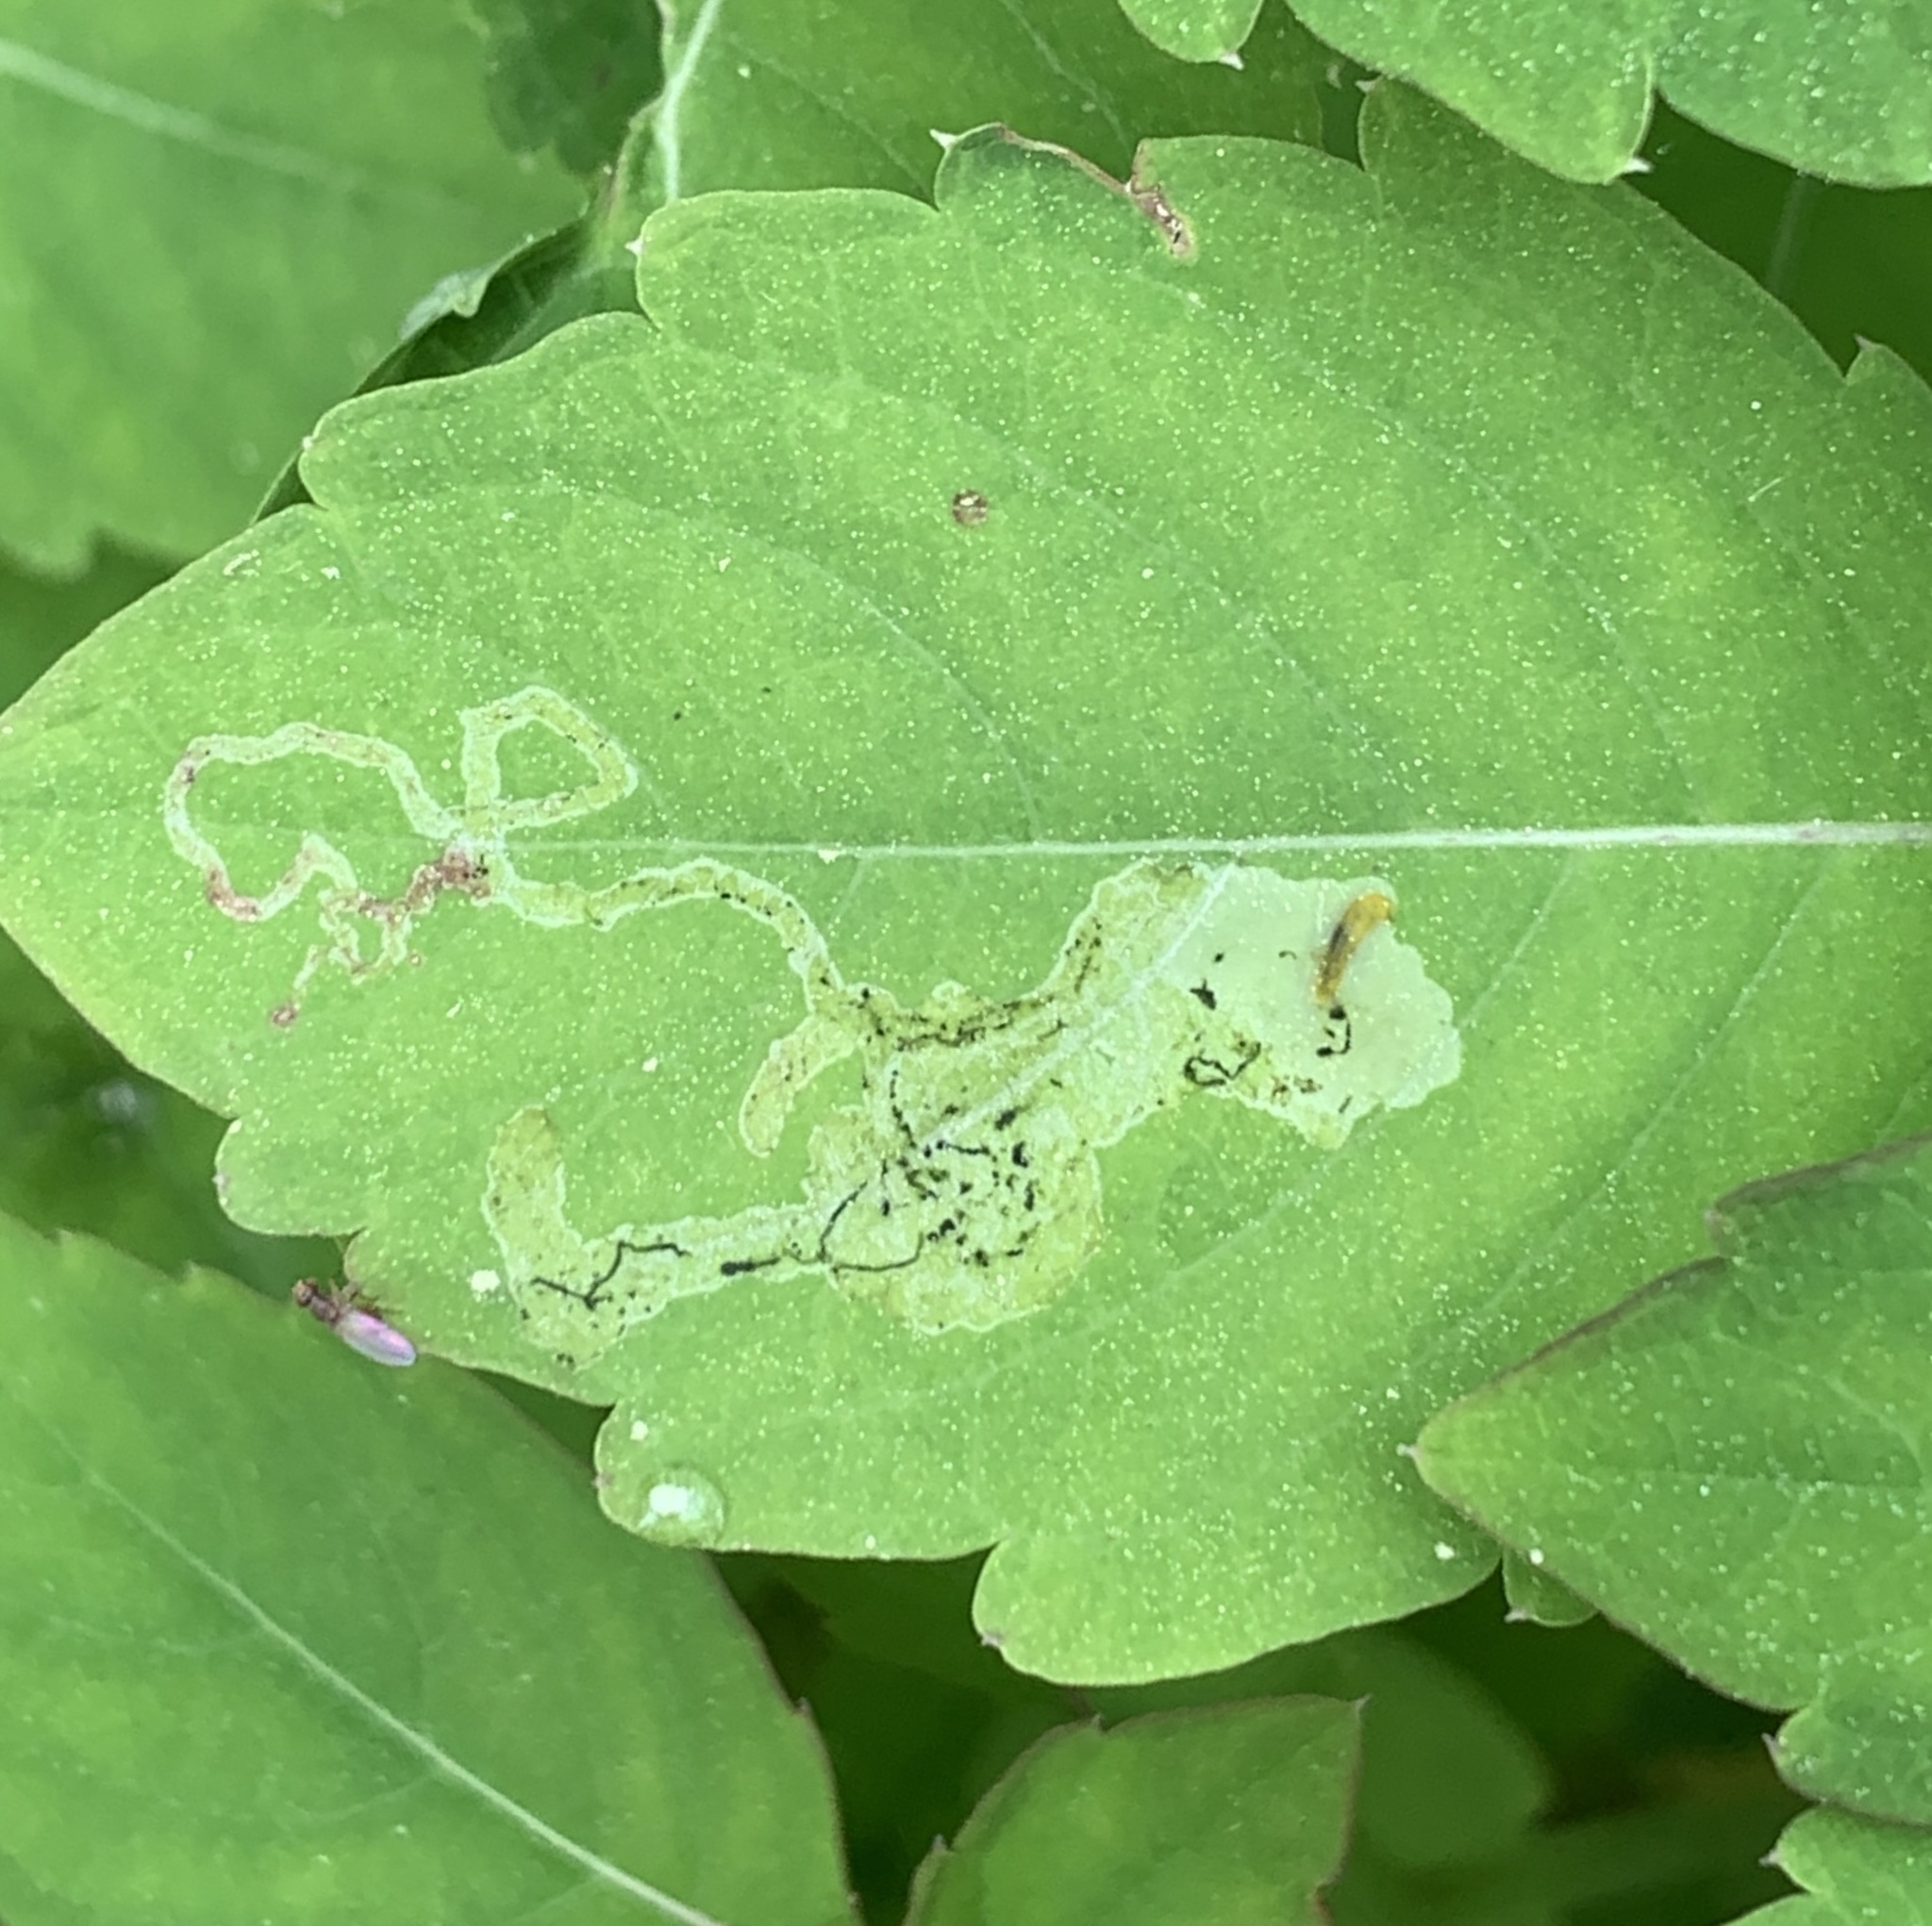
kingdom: Animalia
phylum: Arthropoda
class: Insecta
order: Diptera
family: Agromyzidae
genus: Phytoliriomyza
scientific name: Phytoliriomyza melampyga
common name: Jewelweed leaf-miner fly
